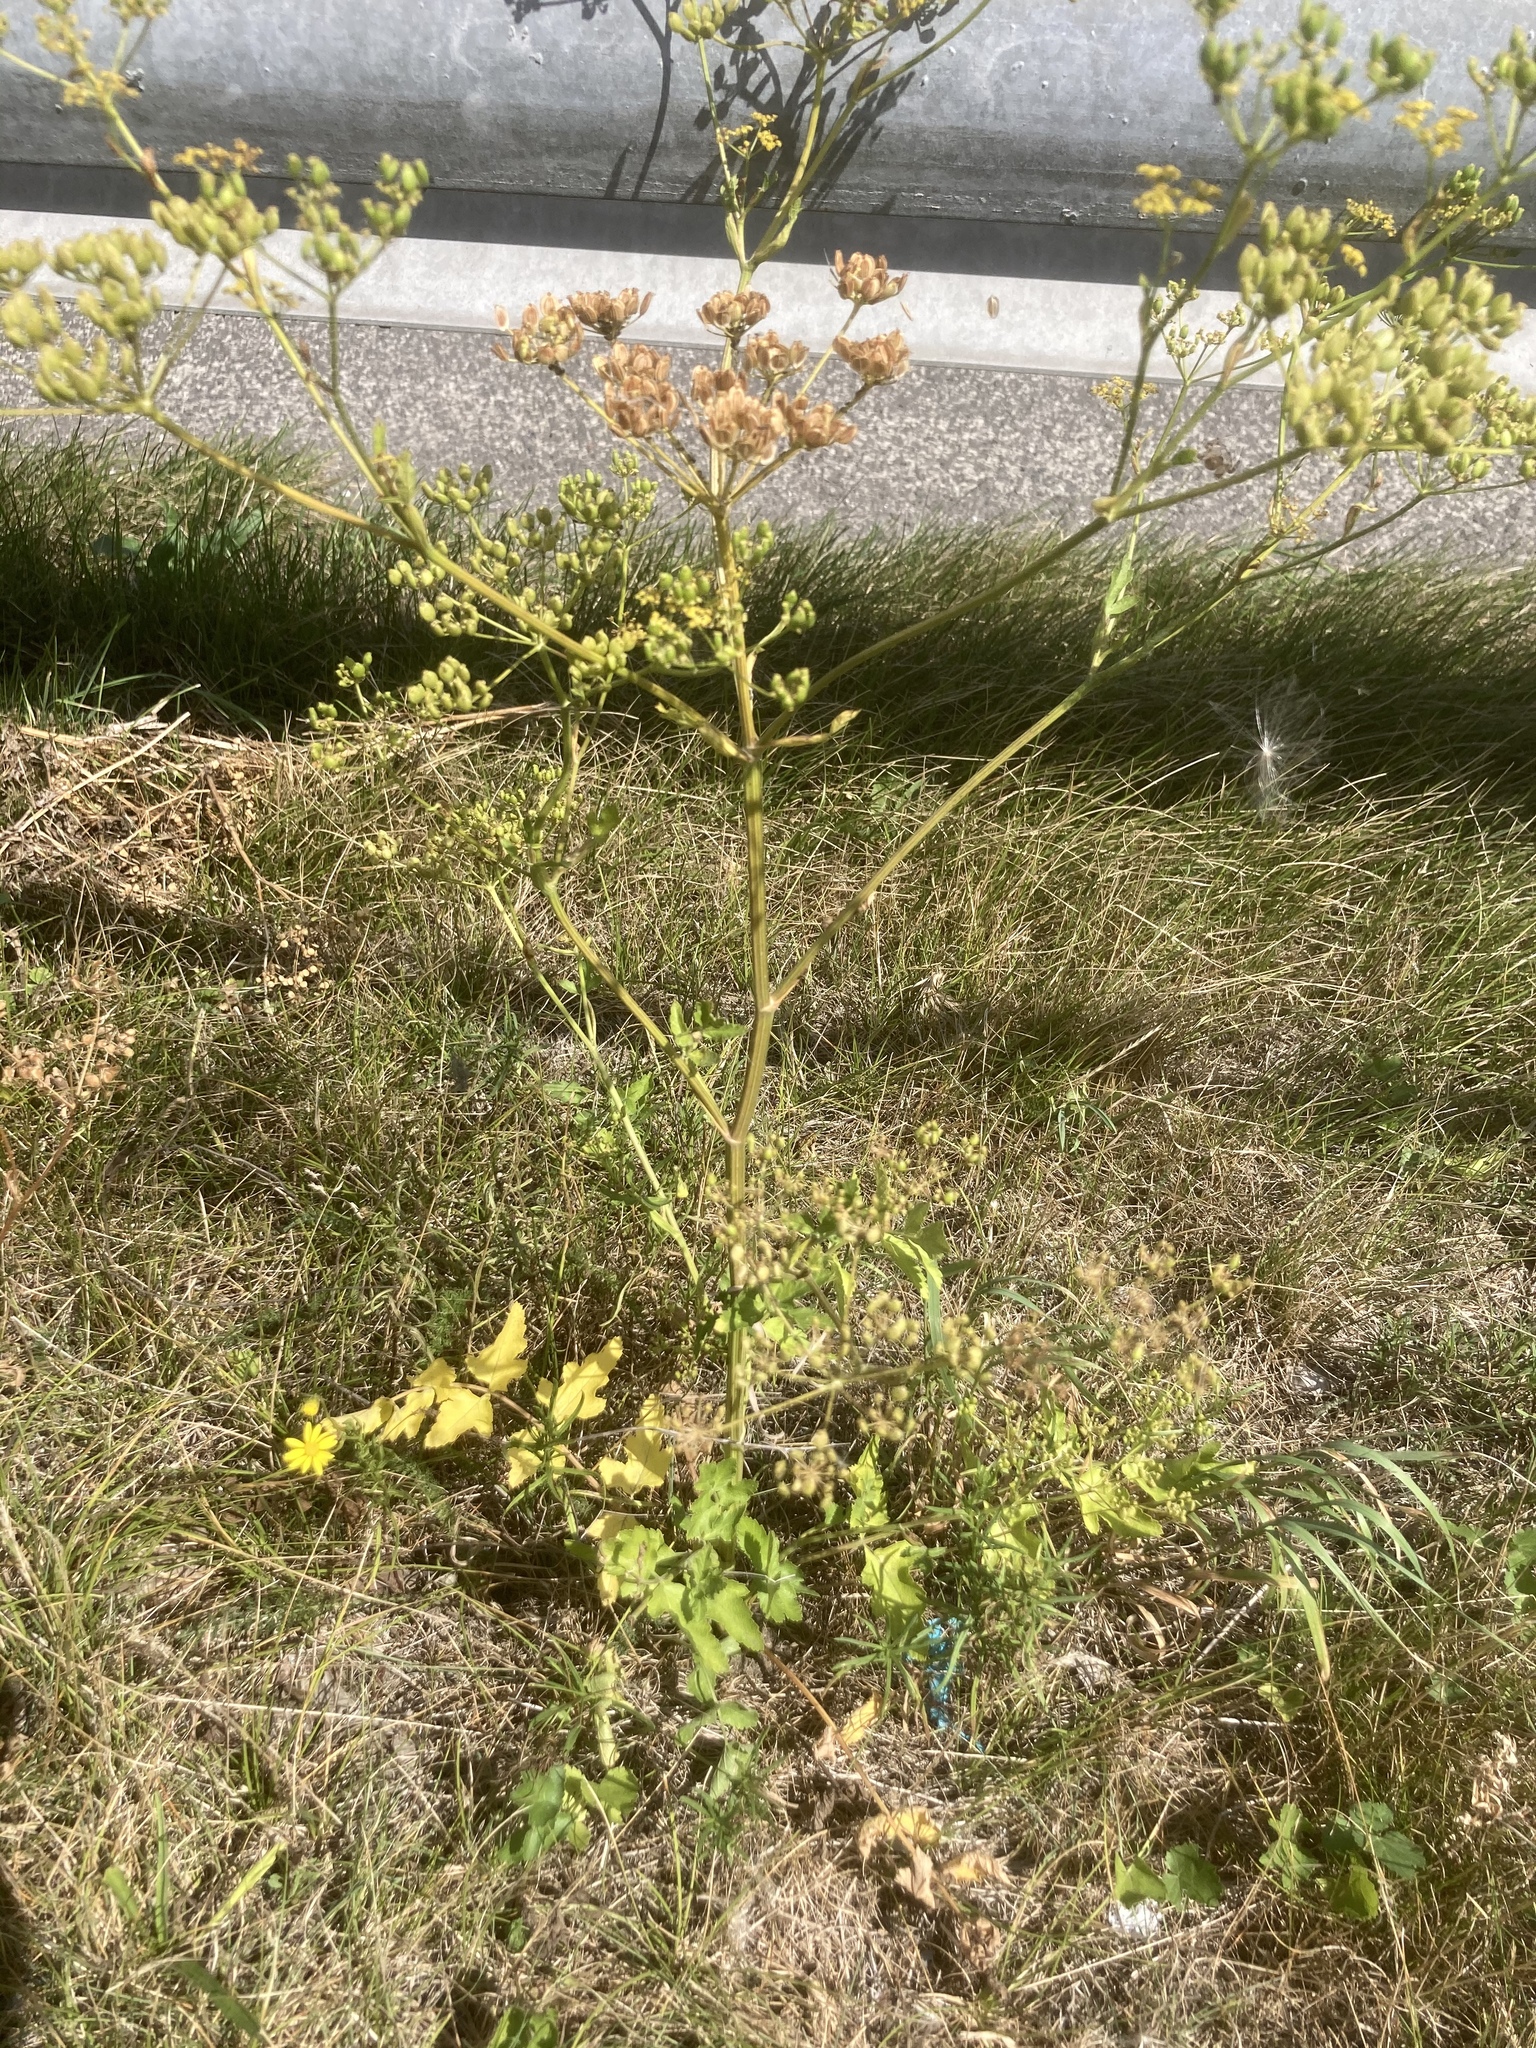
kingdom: Plantae
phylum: Tracheophyta
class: Magnoliopsida
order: Apiales
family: Apiaceae
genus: Pastinaca
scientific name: Pastinaca sativa
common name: Wild parsnip
